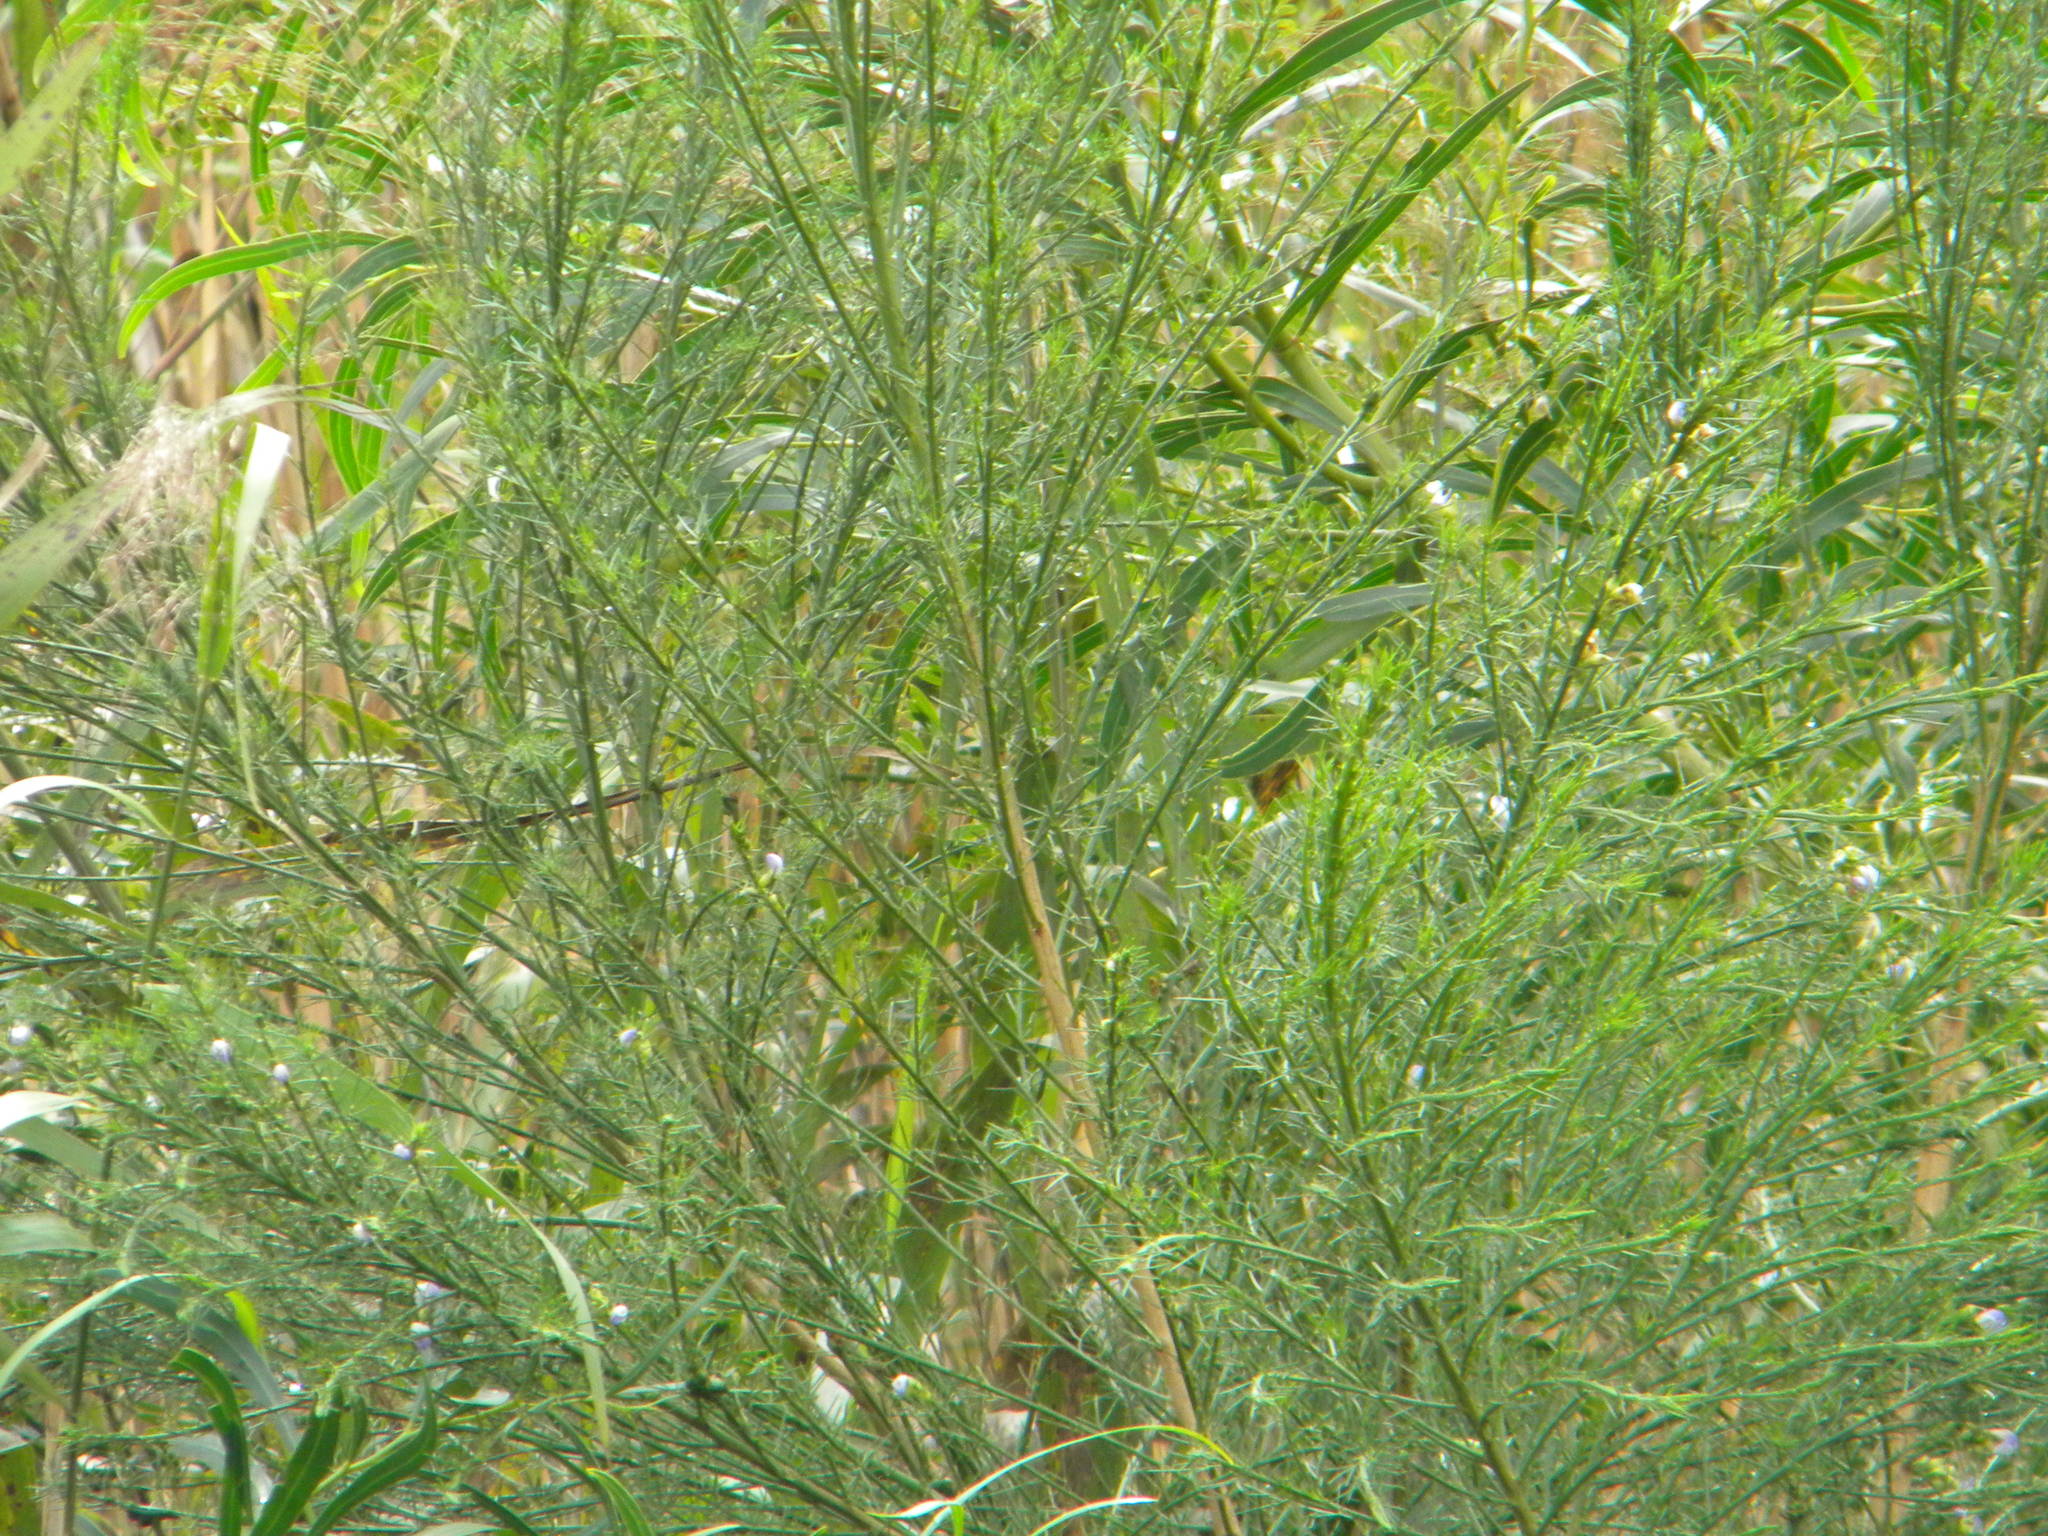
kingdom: Plantae
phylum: Tracheophyta
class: Magnoliopsida
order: Fabales
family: Fabaceae
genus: Psoralea
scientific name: Psoralea filifolia
